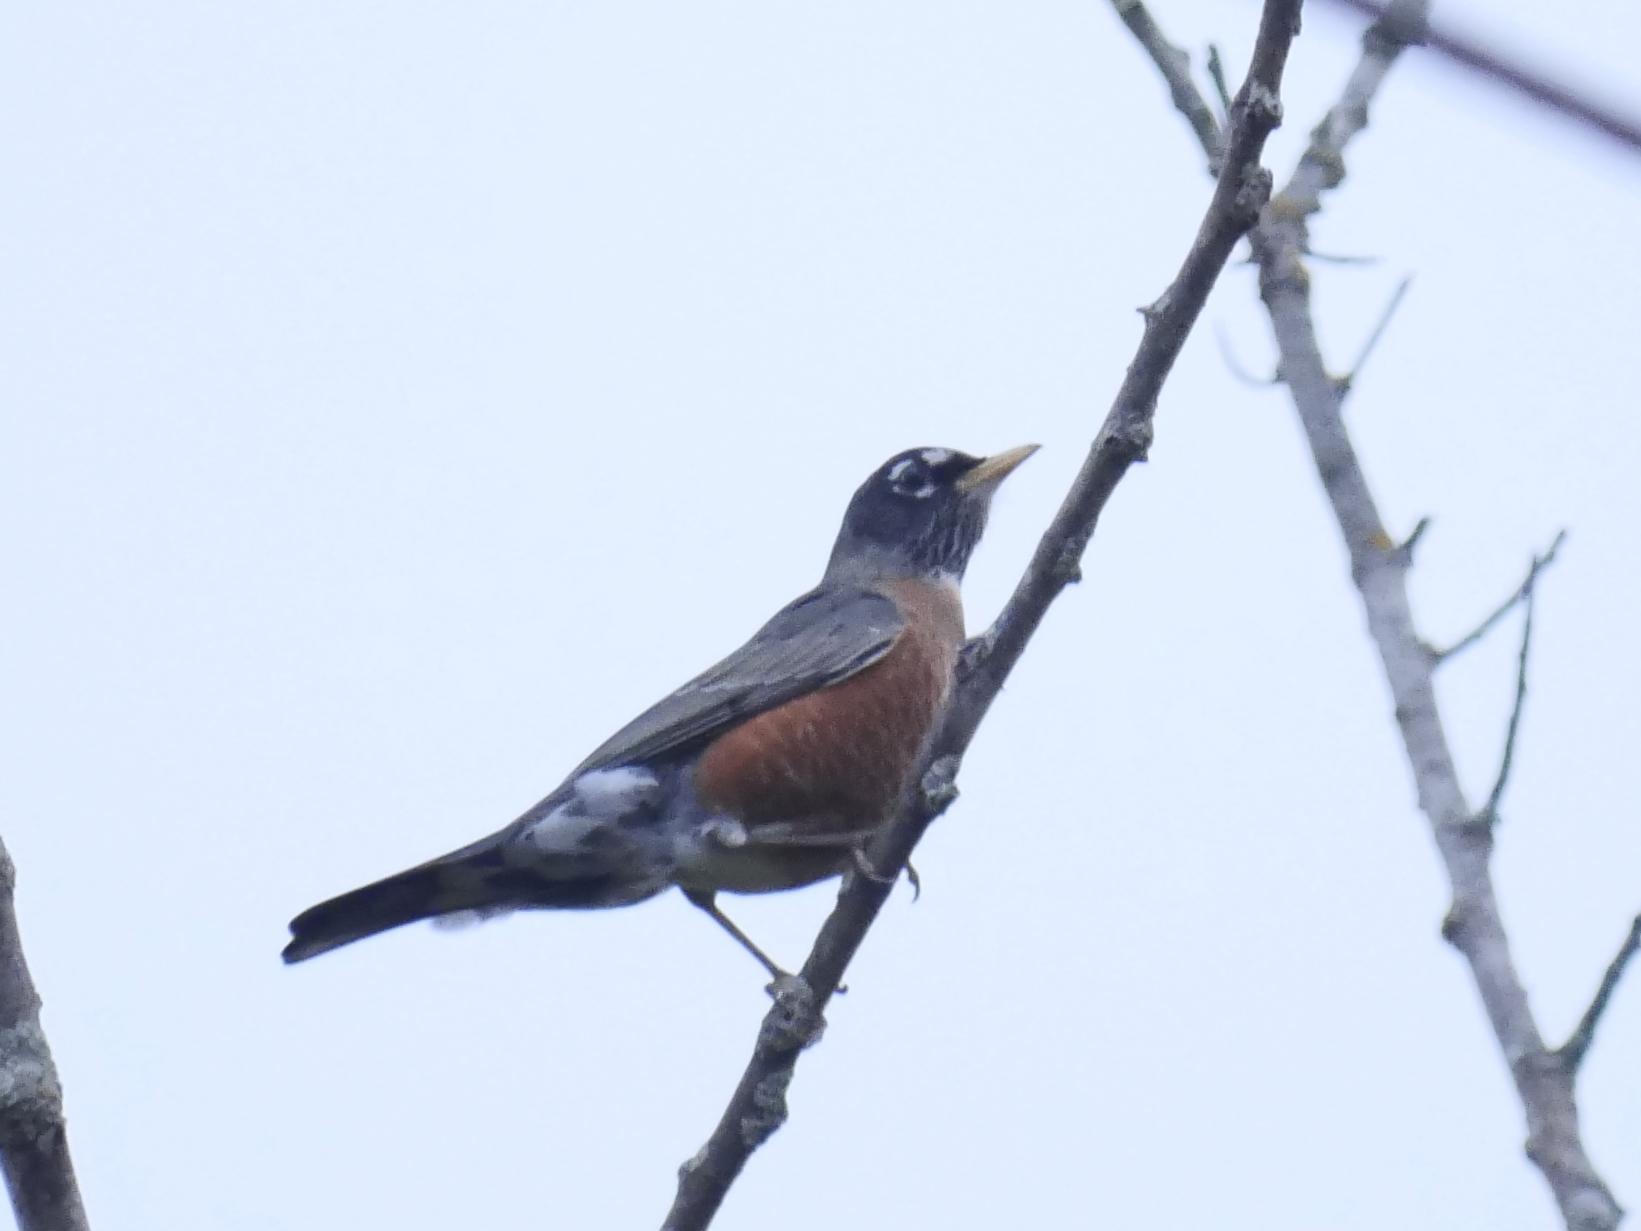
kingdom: Animalia
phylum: Chordata
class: Aves
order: Passeriformes
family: Turdidae
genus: Turdus
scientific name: Turdus migratorius
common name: American robin
